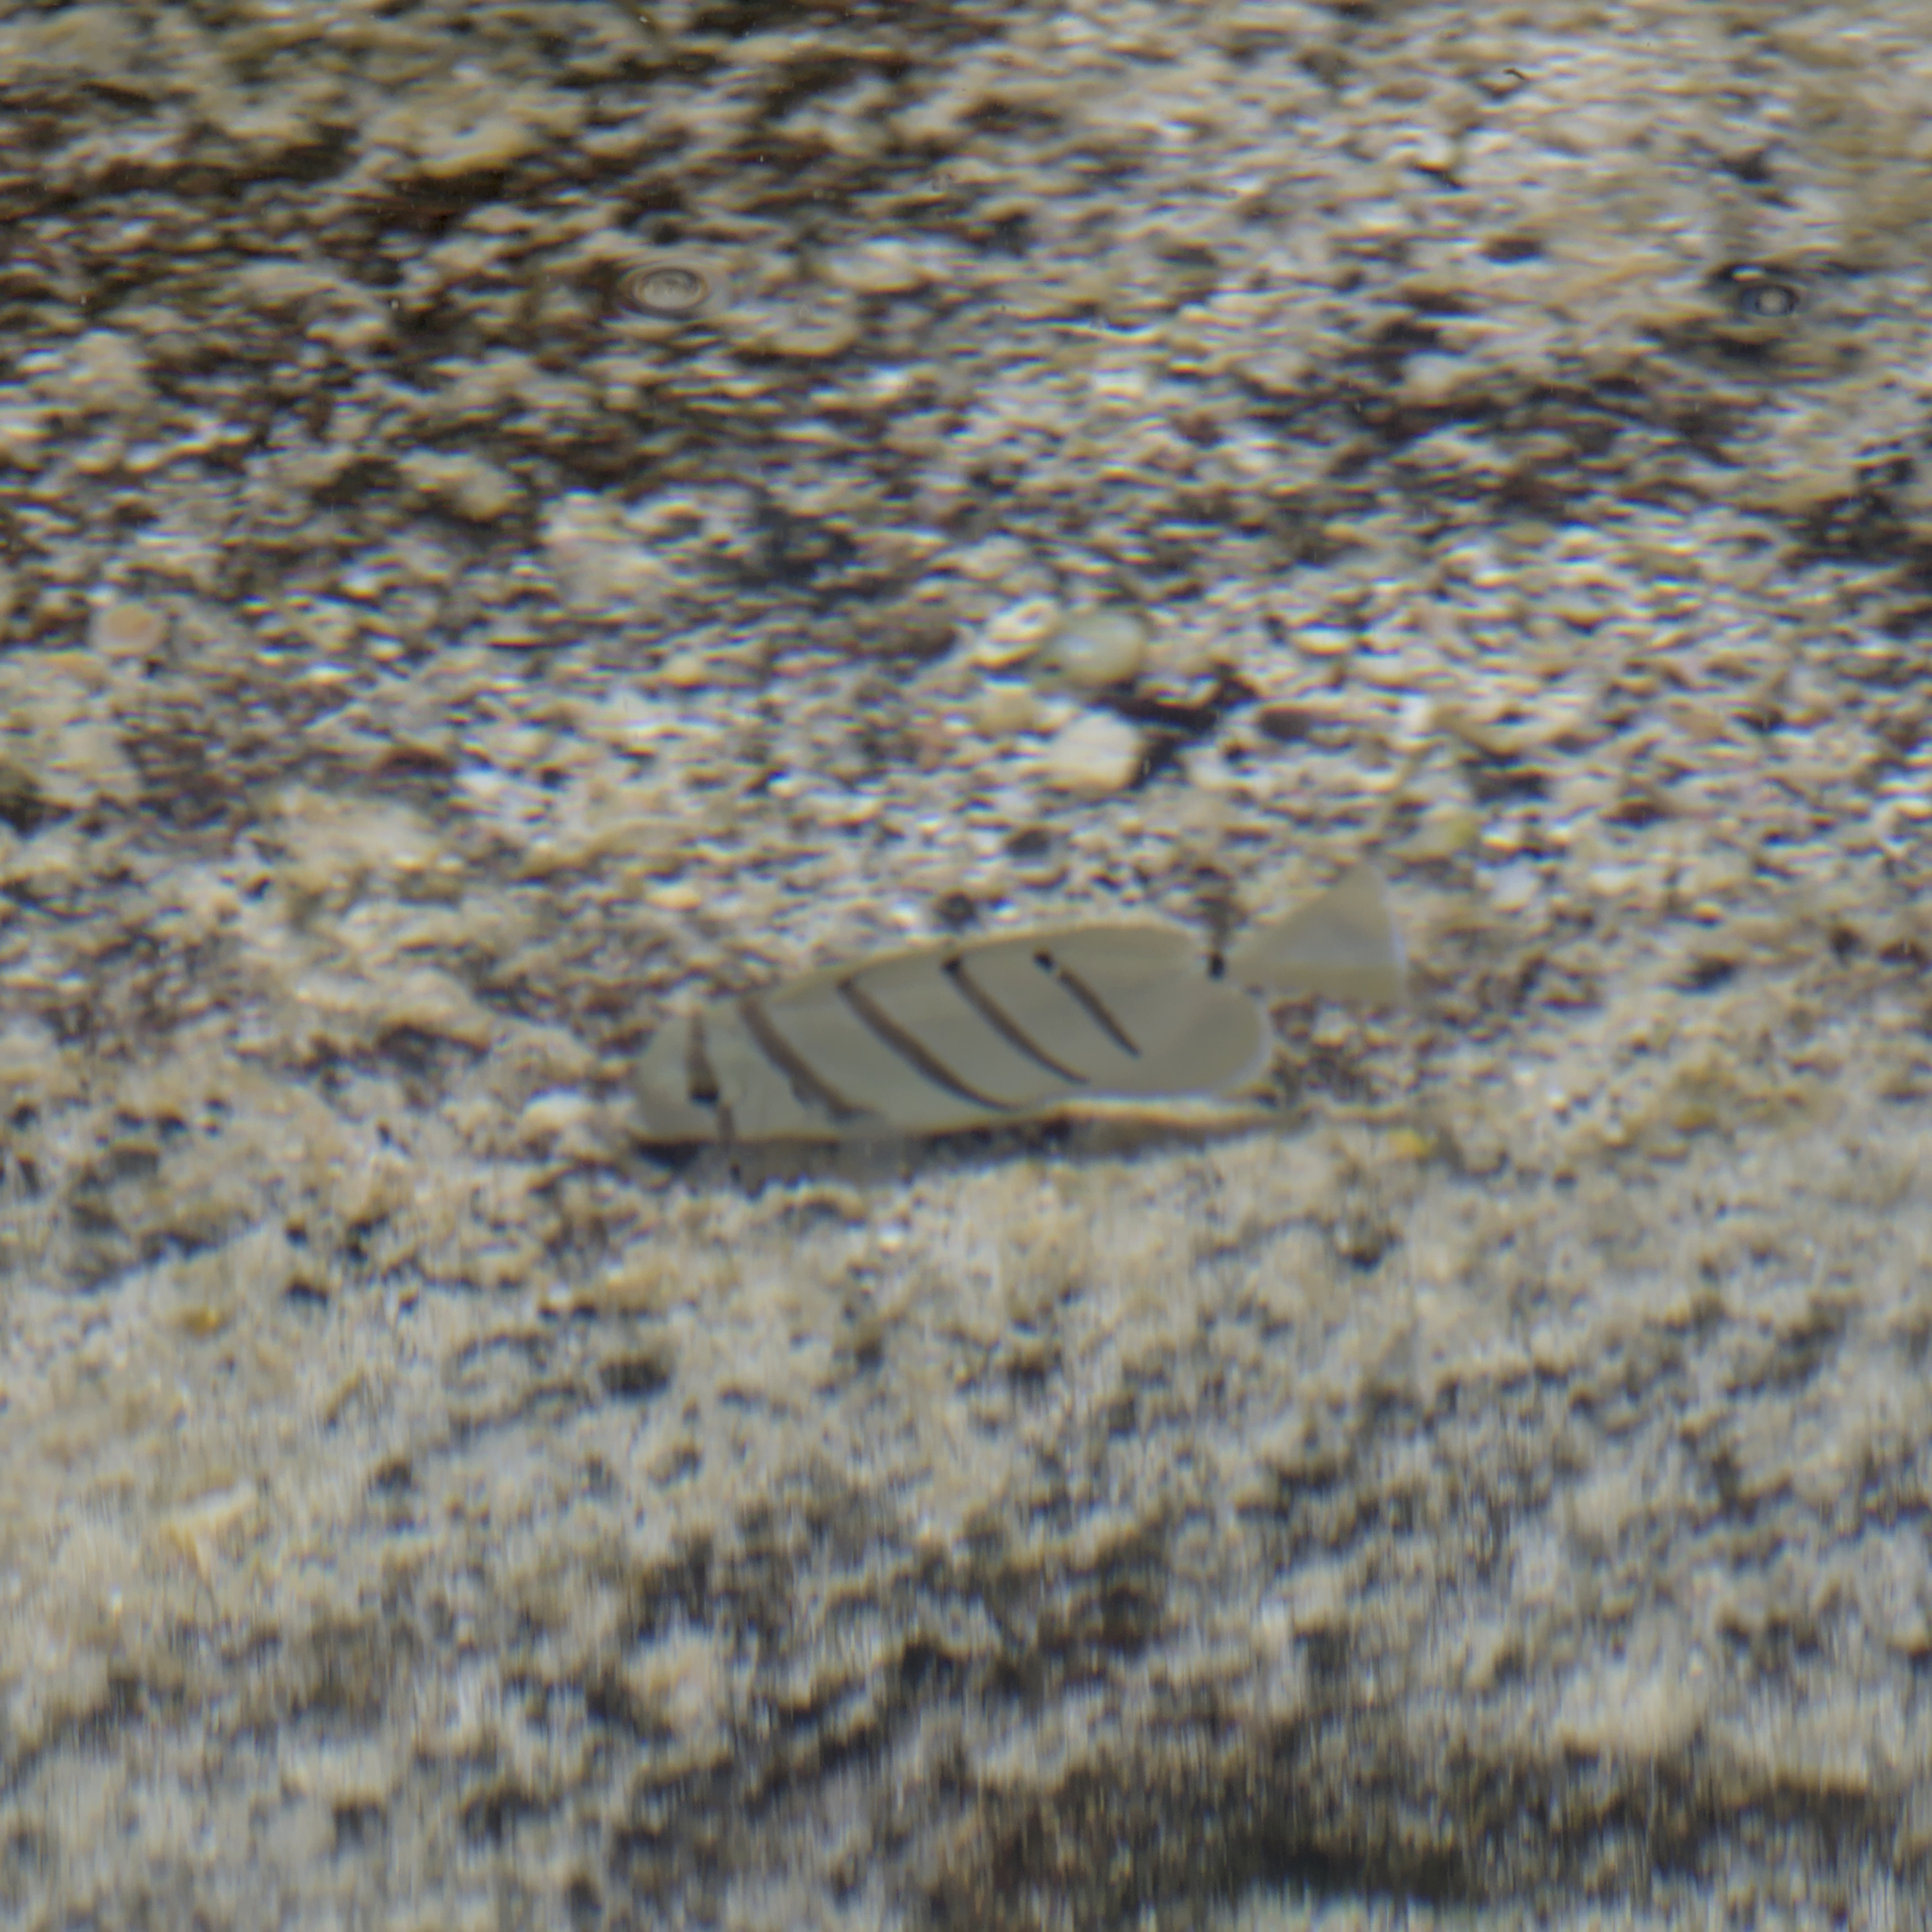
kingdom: Animalia
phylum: Chordata
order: Perciformes
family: Acanthuridae
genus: Acanthurus
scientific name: Acanthurus triostegus
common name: Convict surgeonfish
